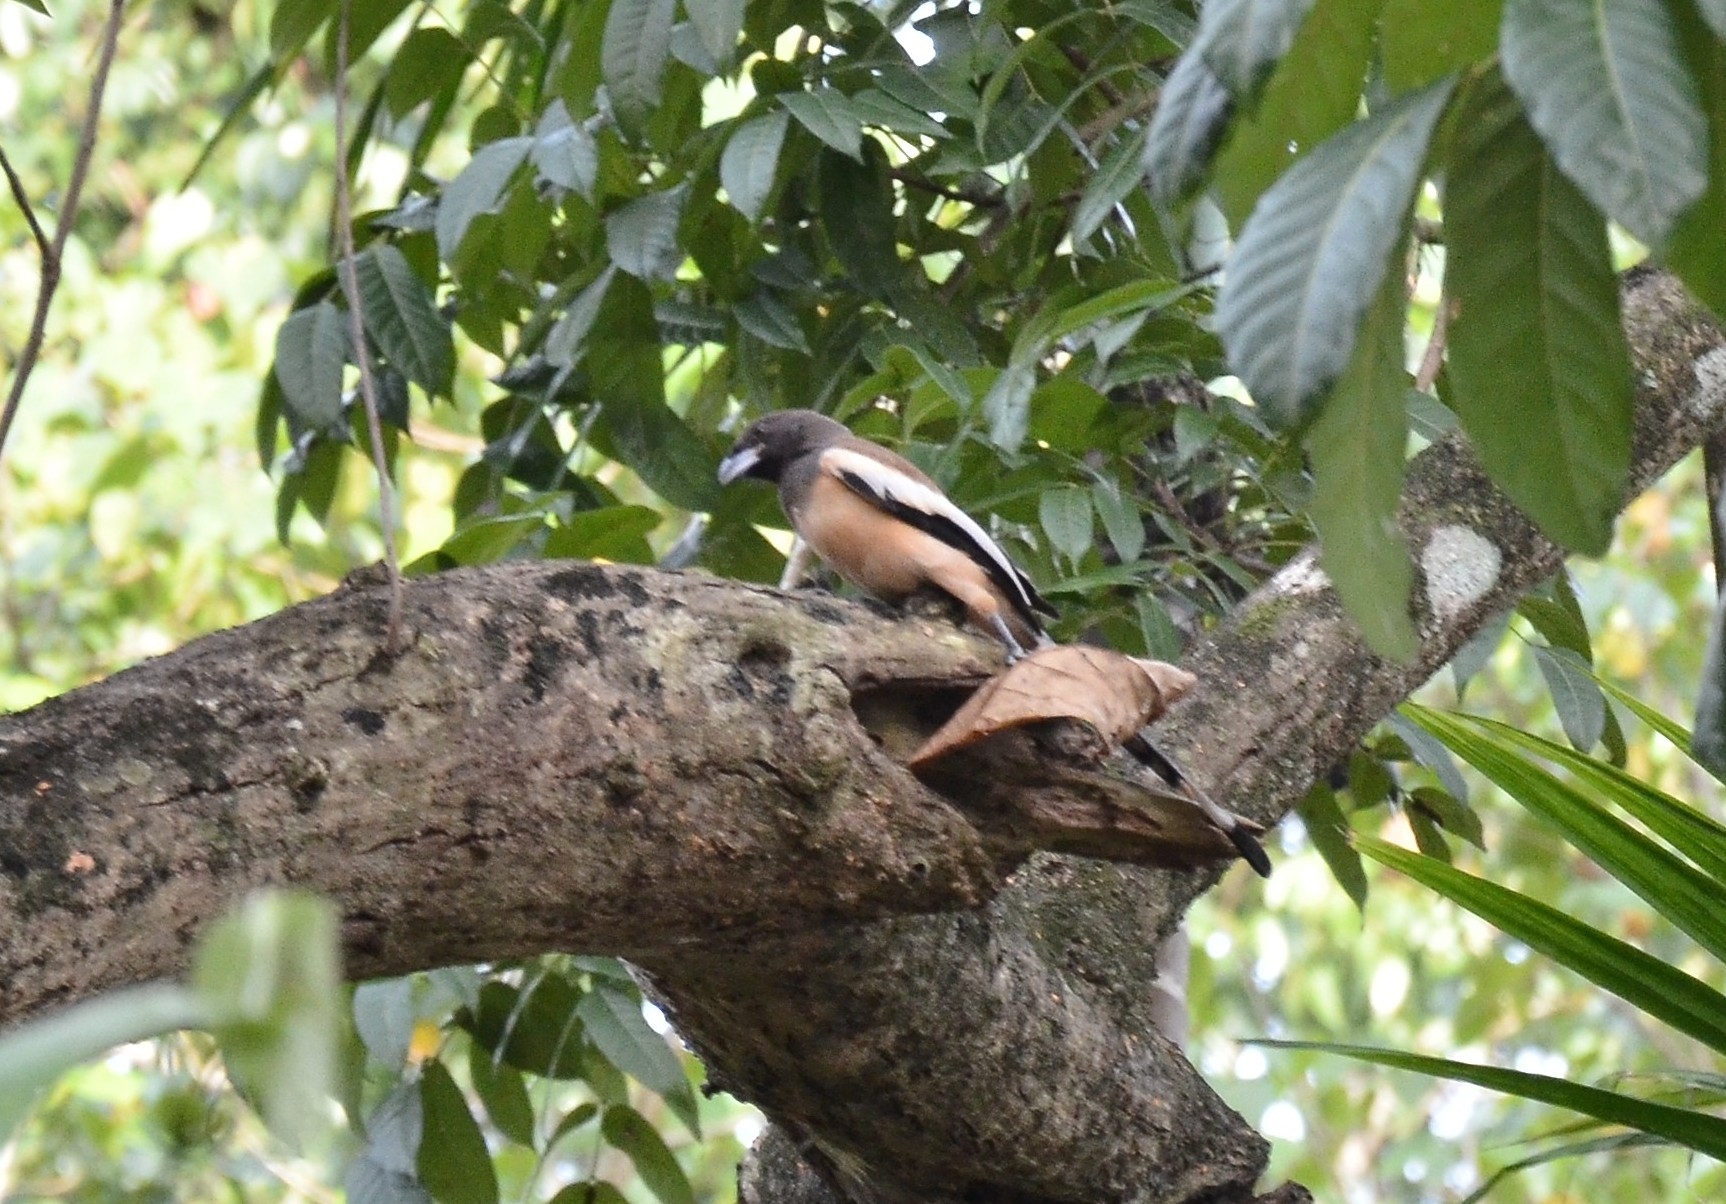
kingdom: Animalia
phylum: Chordata
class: Aves
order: Passeriformes
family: Corvidae
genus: Dendrocitta
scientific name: Dendrocitta vagabunda
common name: Rufous treepie
